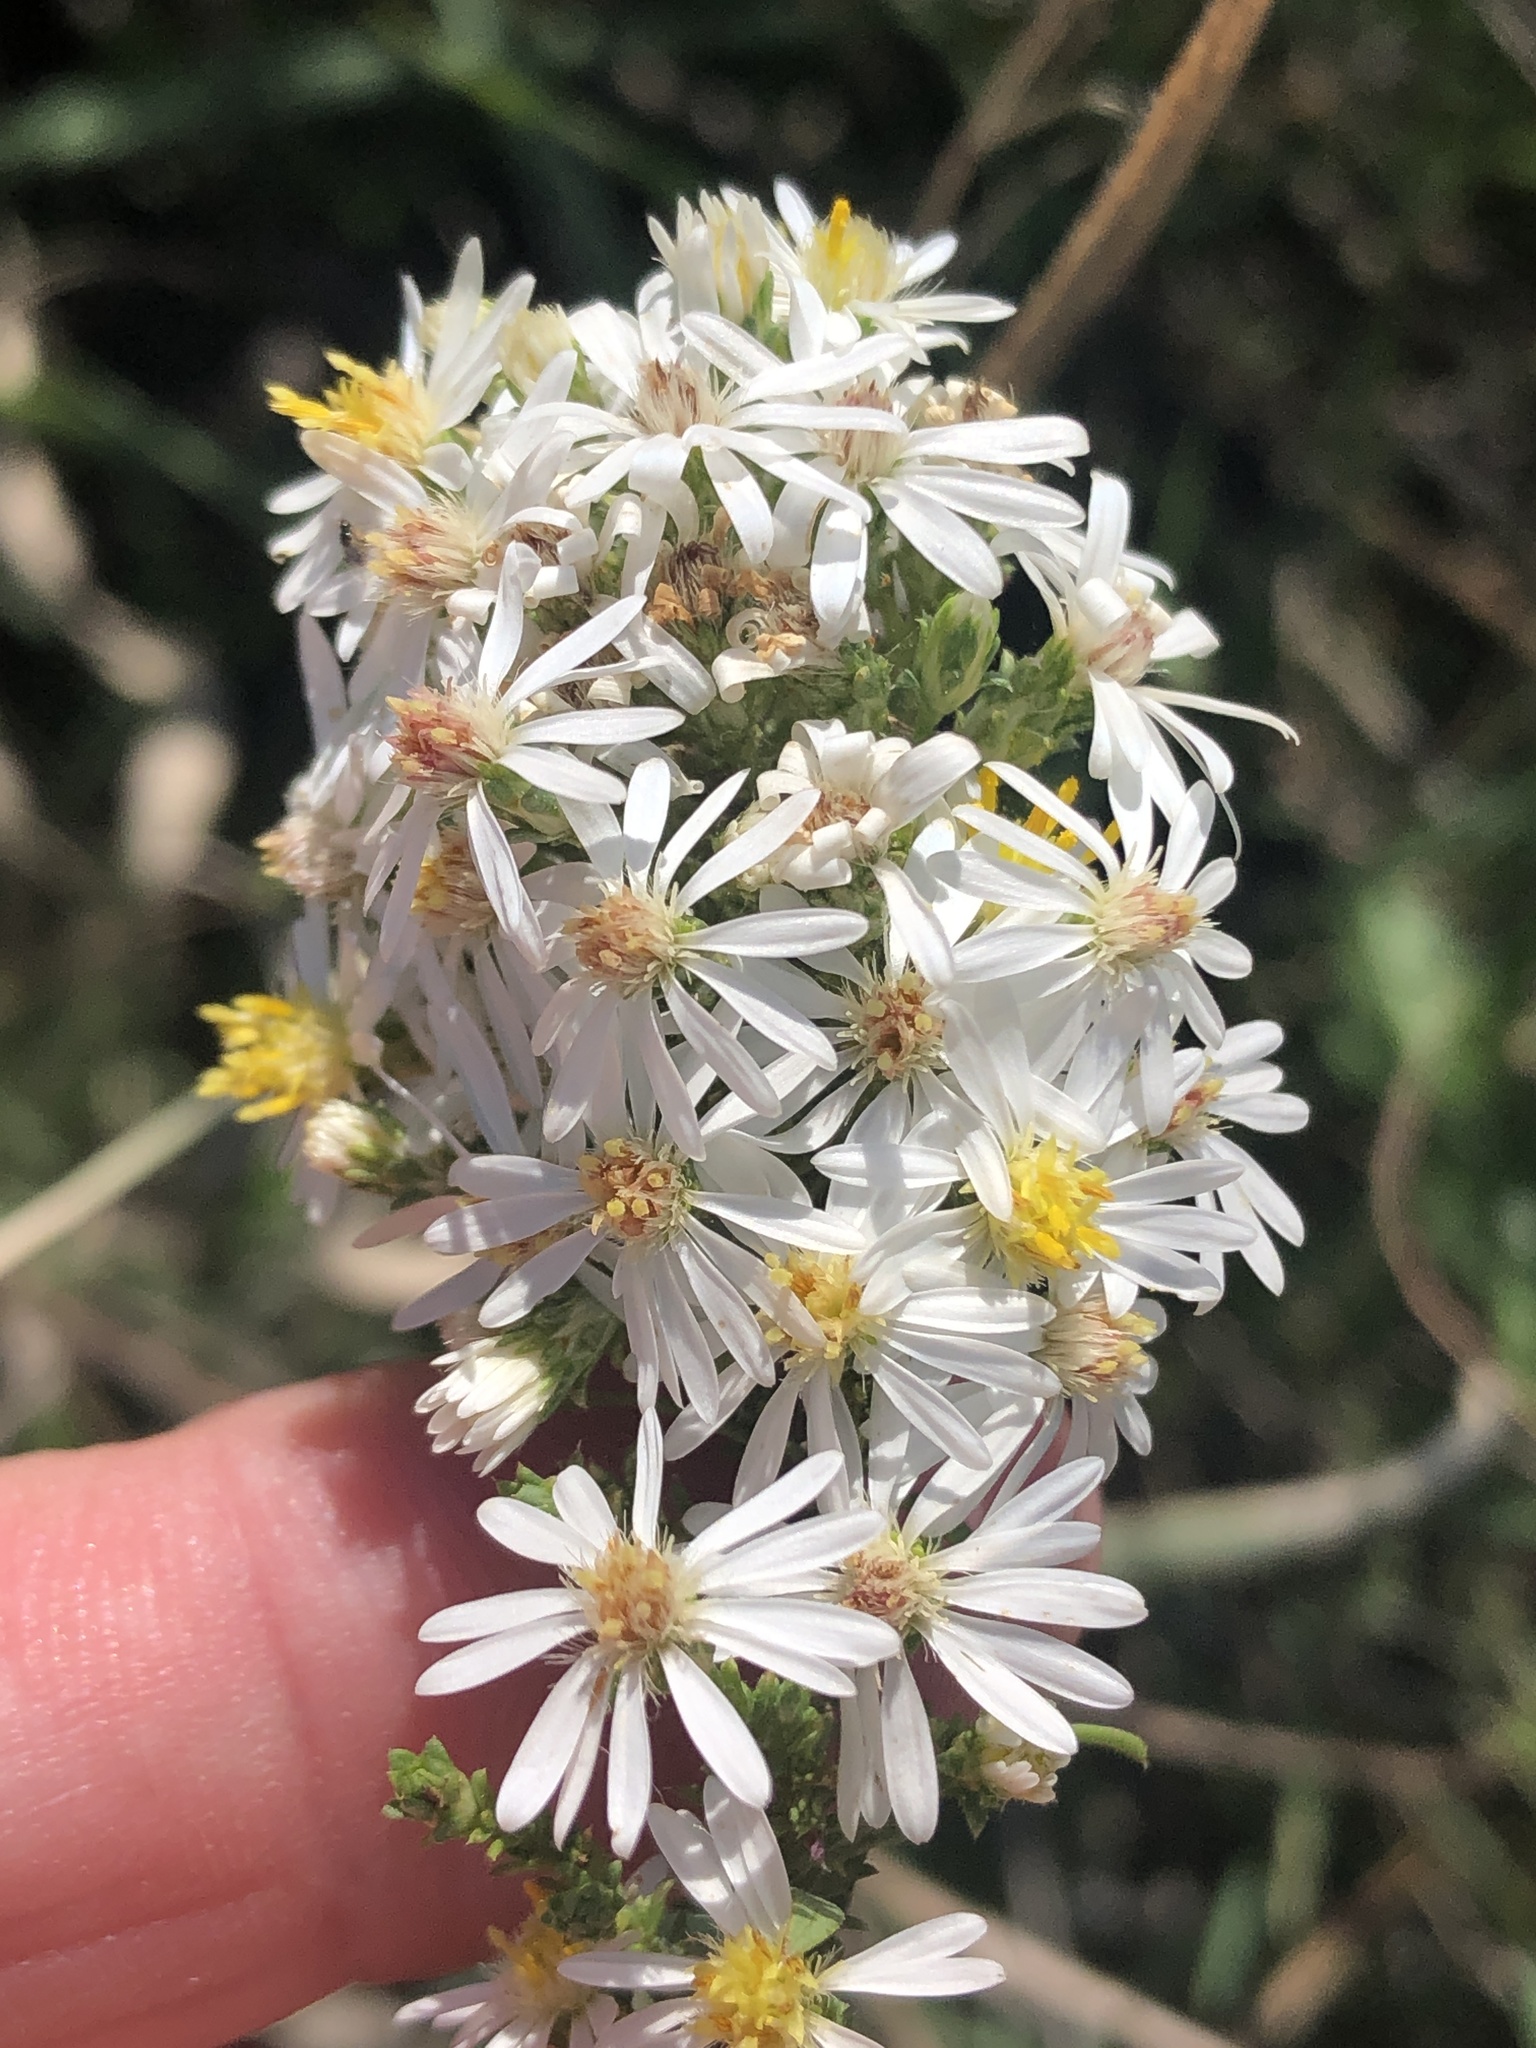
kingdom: Plantae
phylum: Tracheophyta
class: Magnoliopsida
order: Asterales
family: Asteraceae
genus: Symphyotrichum
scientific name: Symphyotrichum ericoides
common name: Heath aster
